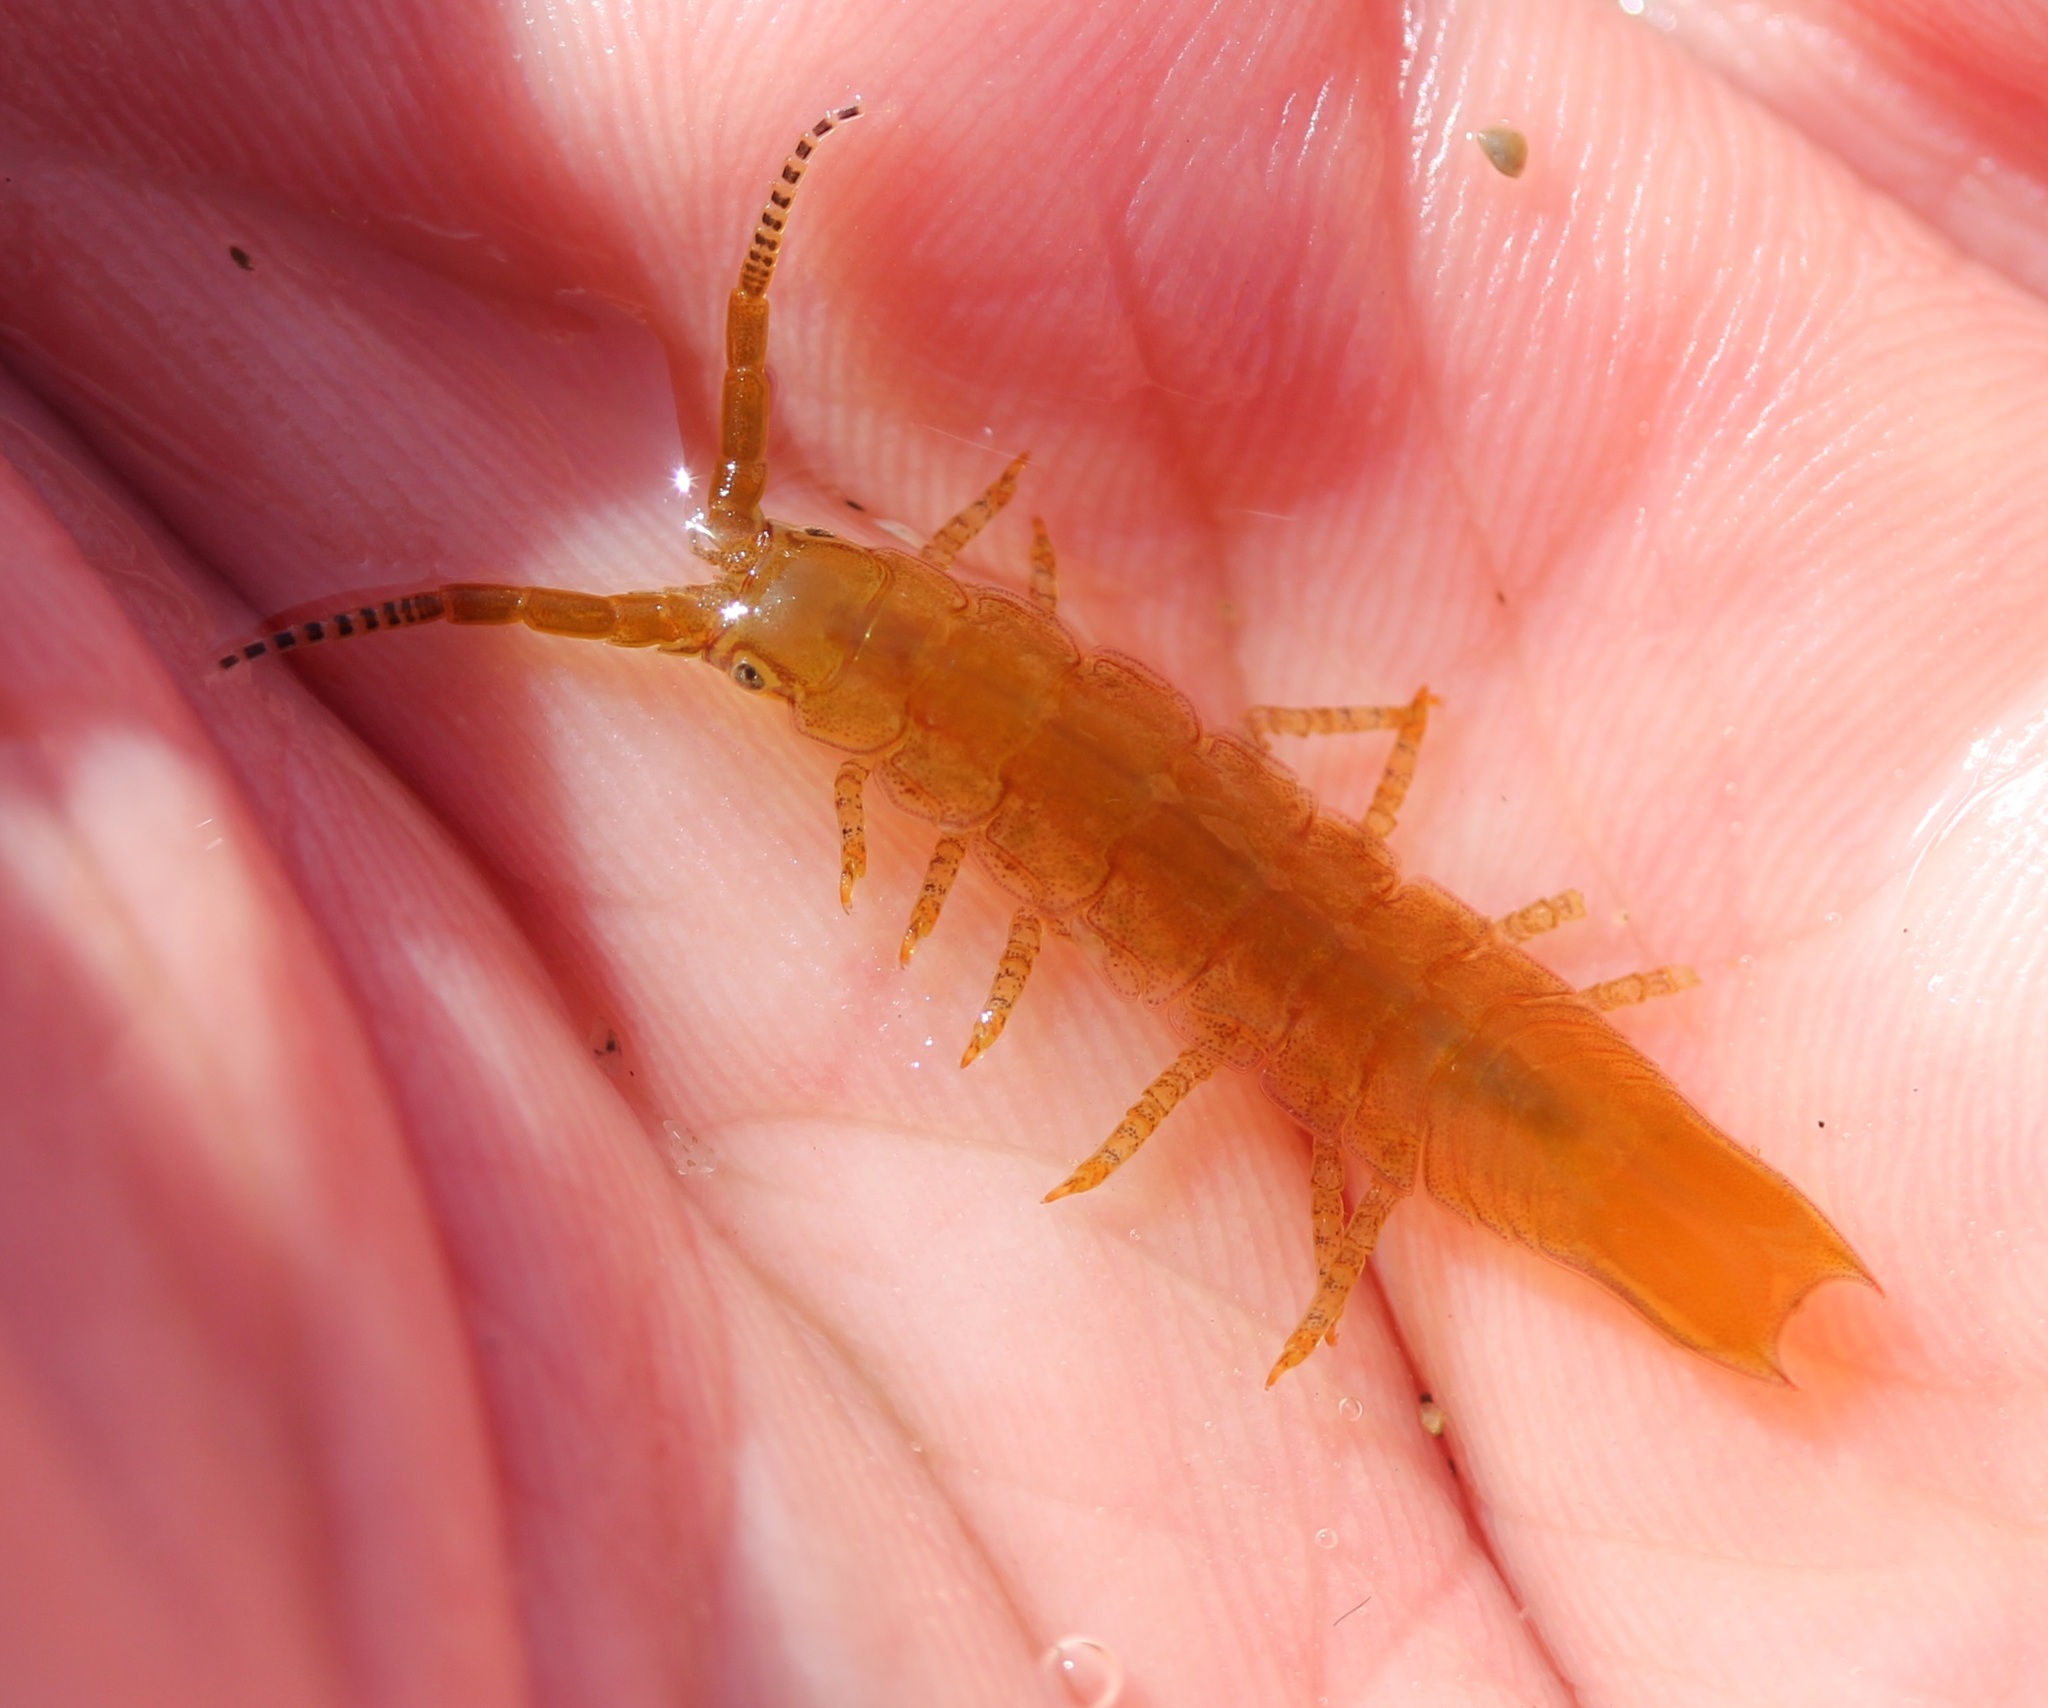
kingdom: Animalia
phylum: Arthropoda
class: Malacostraca
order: Isopoda
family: Idoteidae
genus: Pentidotea
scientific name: Pentidotea resecata
